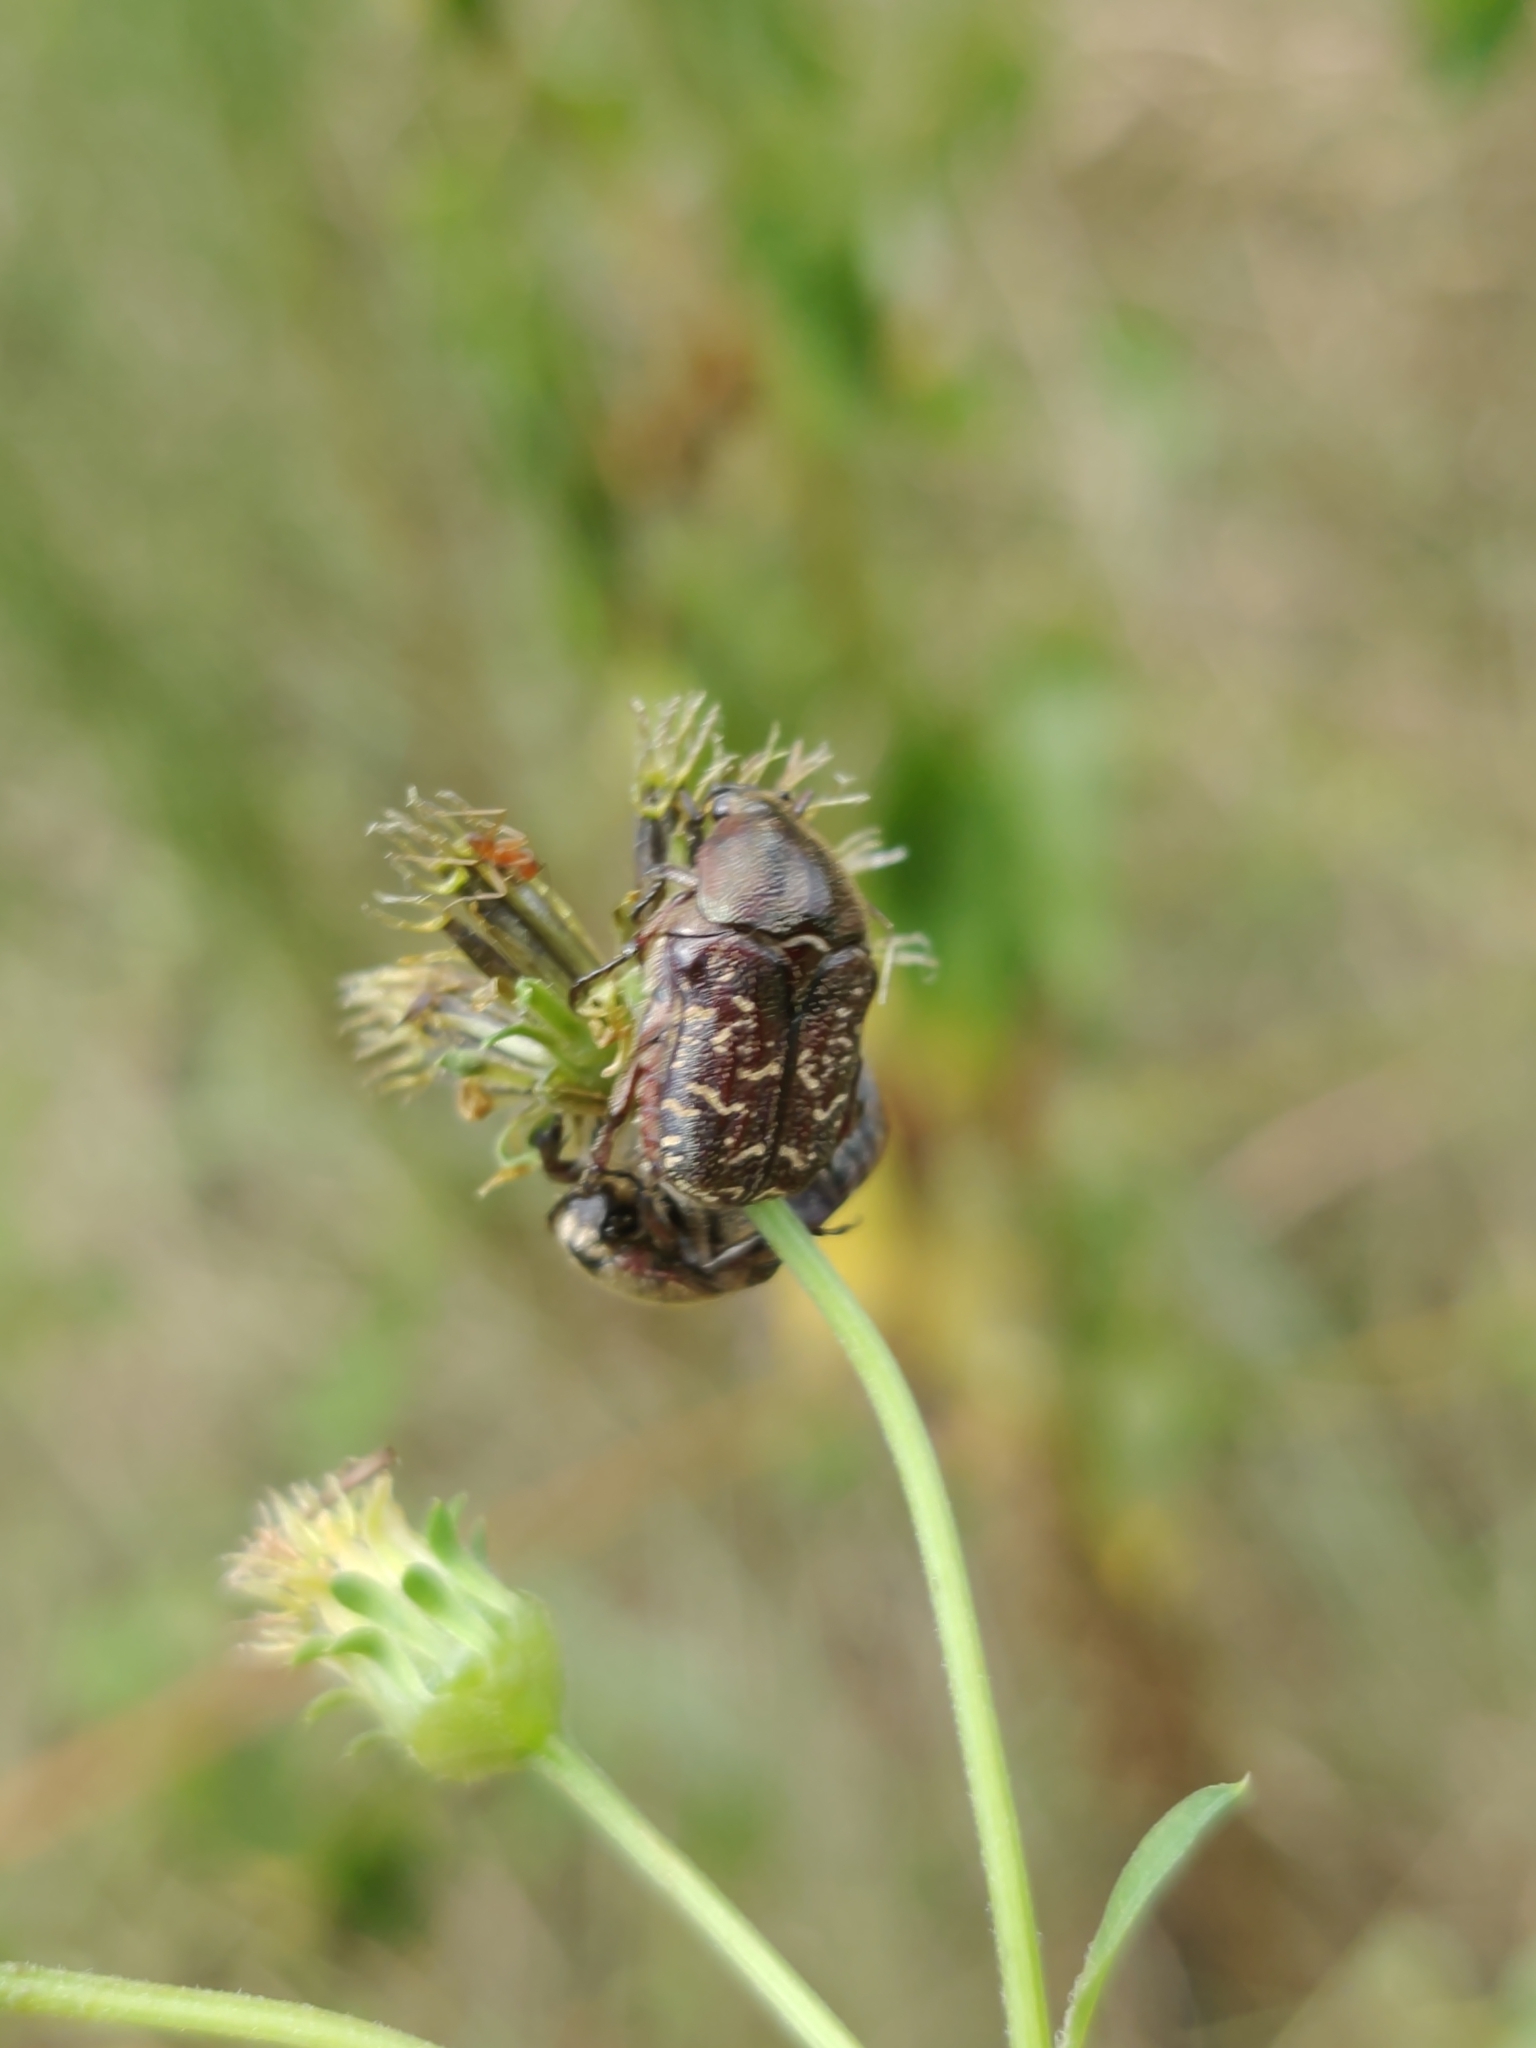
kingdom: Animalia
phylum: Arthropoda
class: Insecta
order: Coleoptera
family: Scarabaeidae
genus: Euphoria
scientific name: Euphoria sepulcralis
